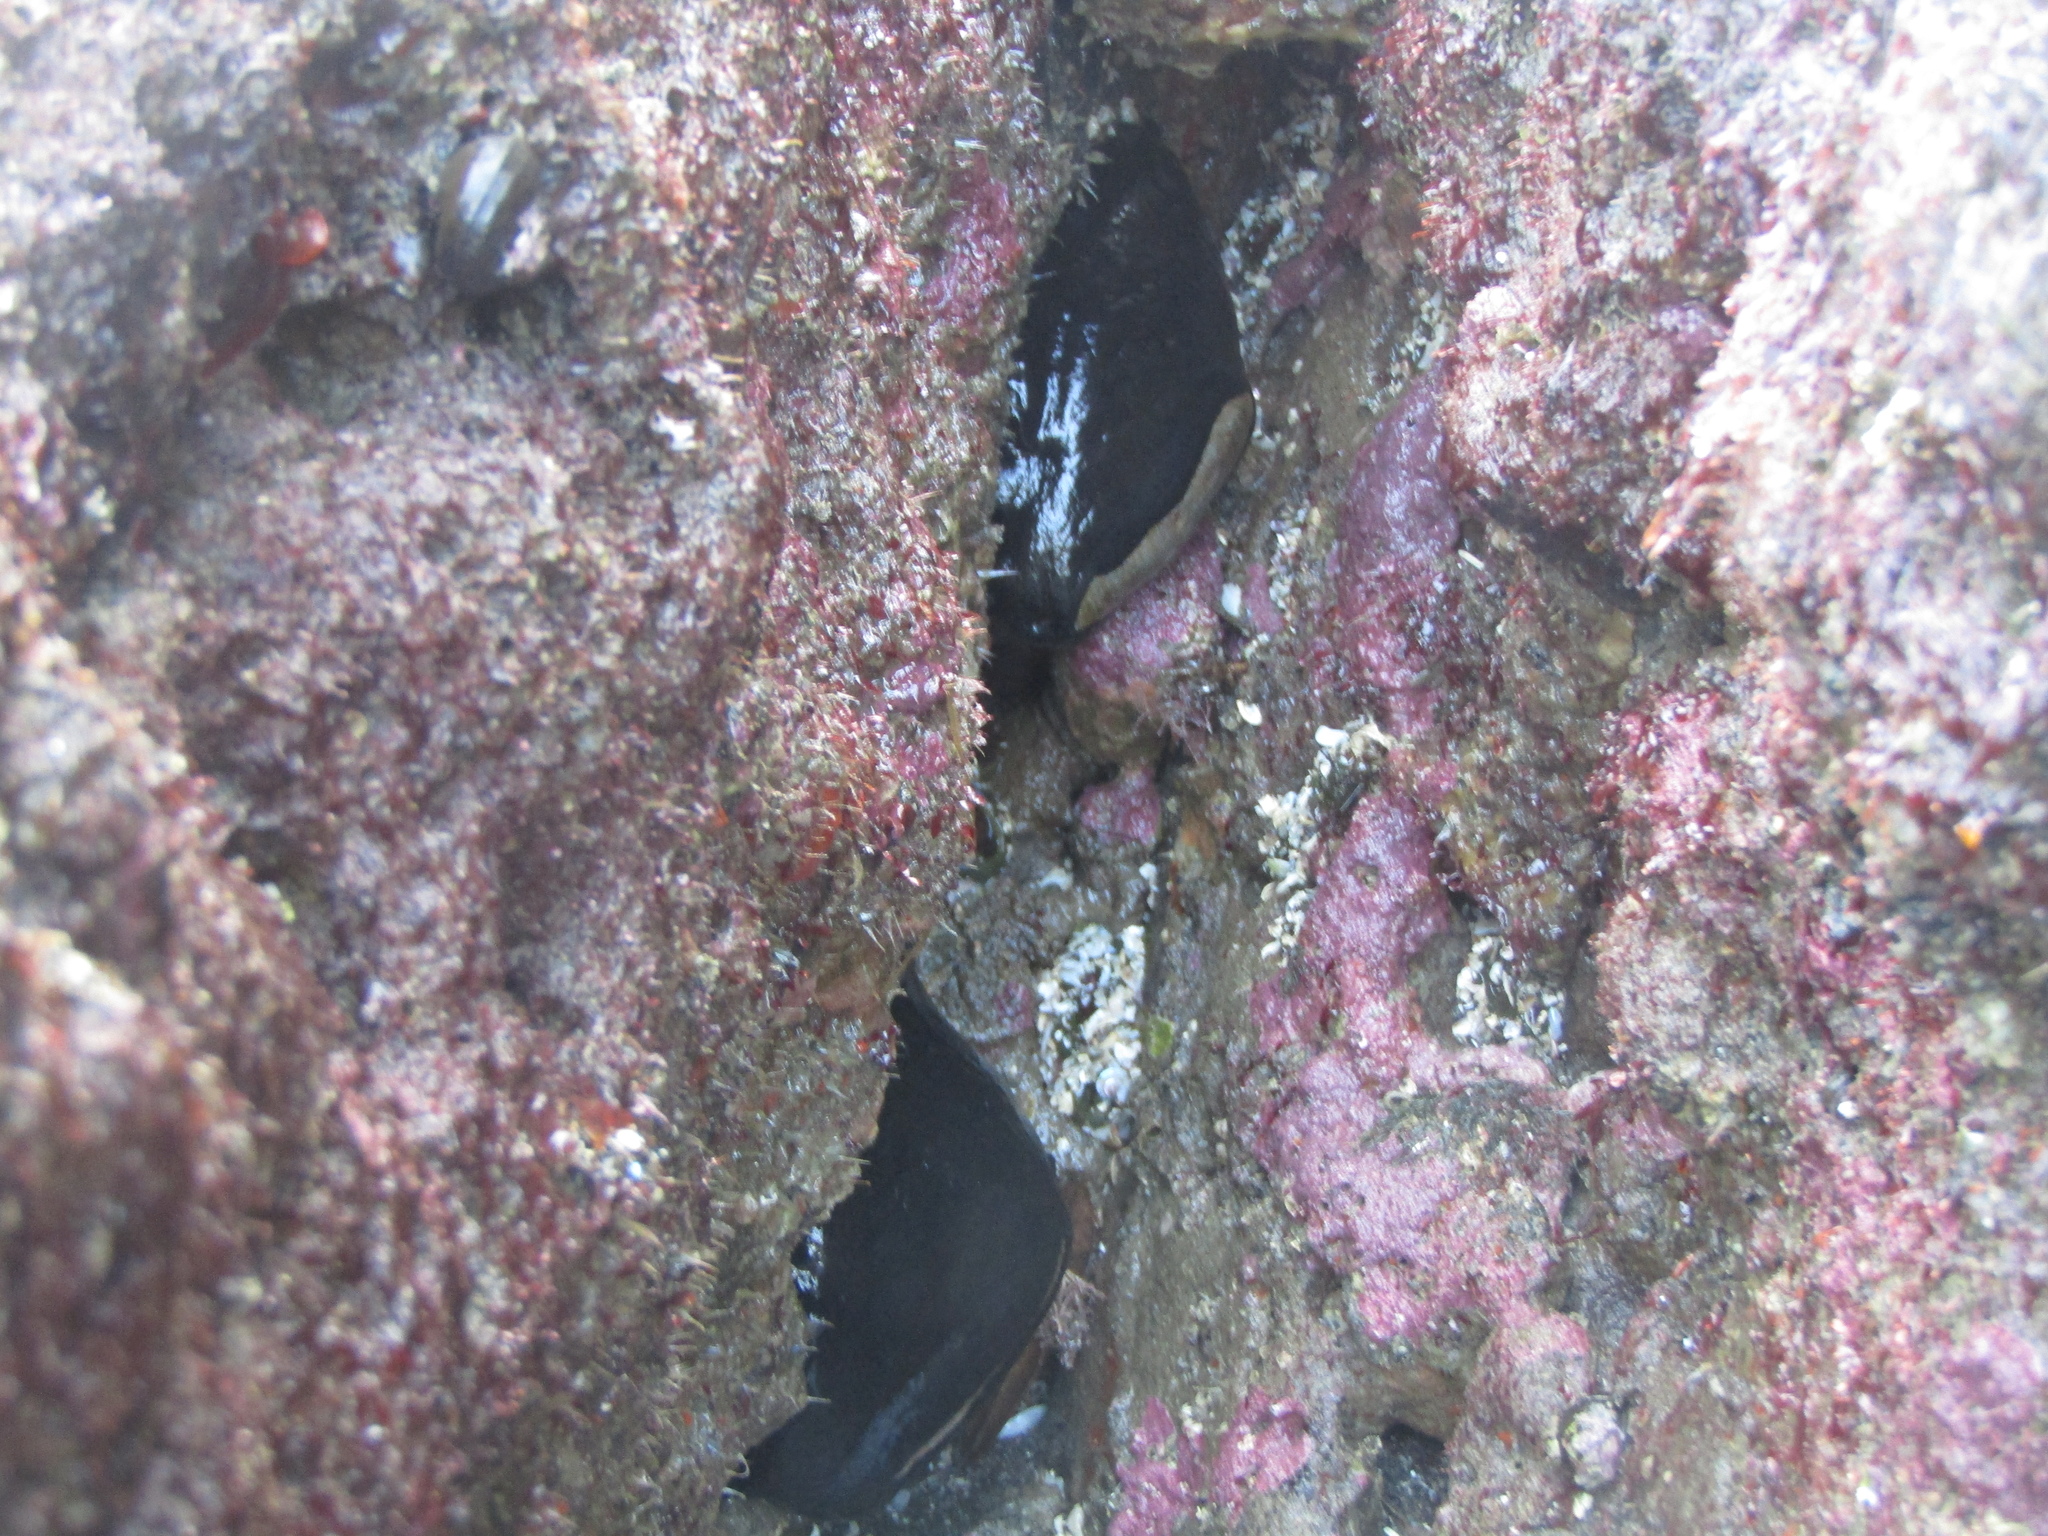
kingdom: Animalia
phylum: Mollusca
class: Gastropoda
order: Lepetellida
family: Fissurellidae
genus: Scutus
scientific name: Scutus breviculus
